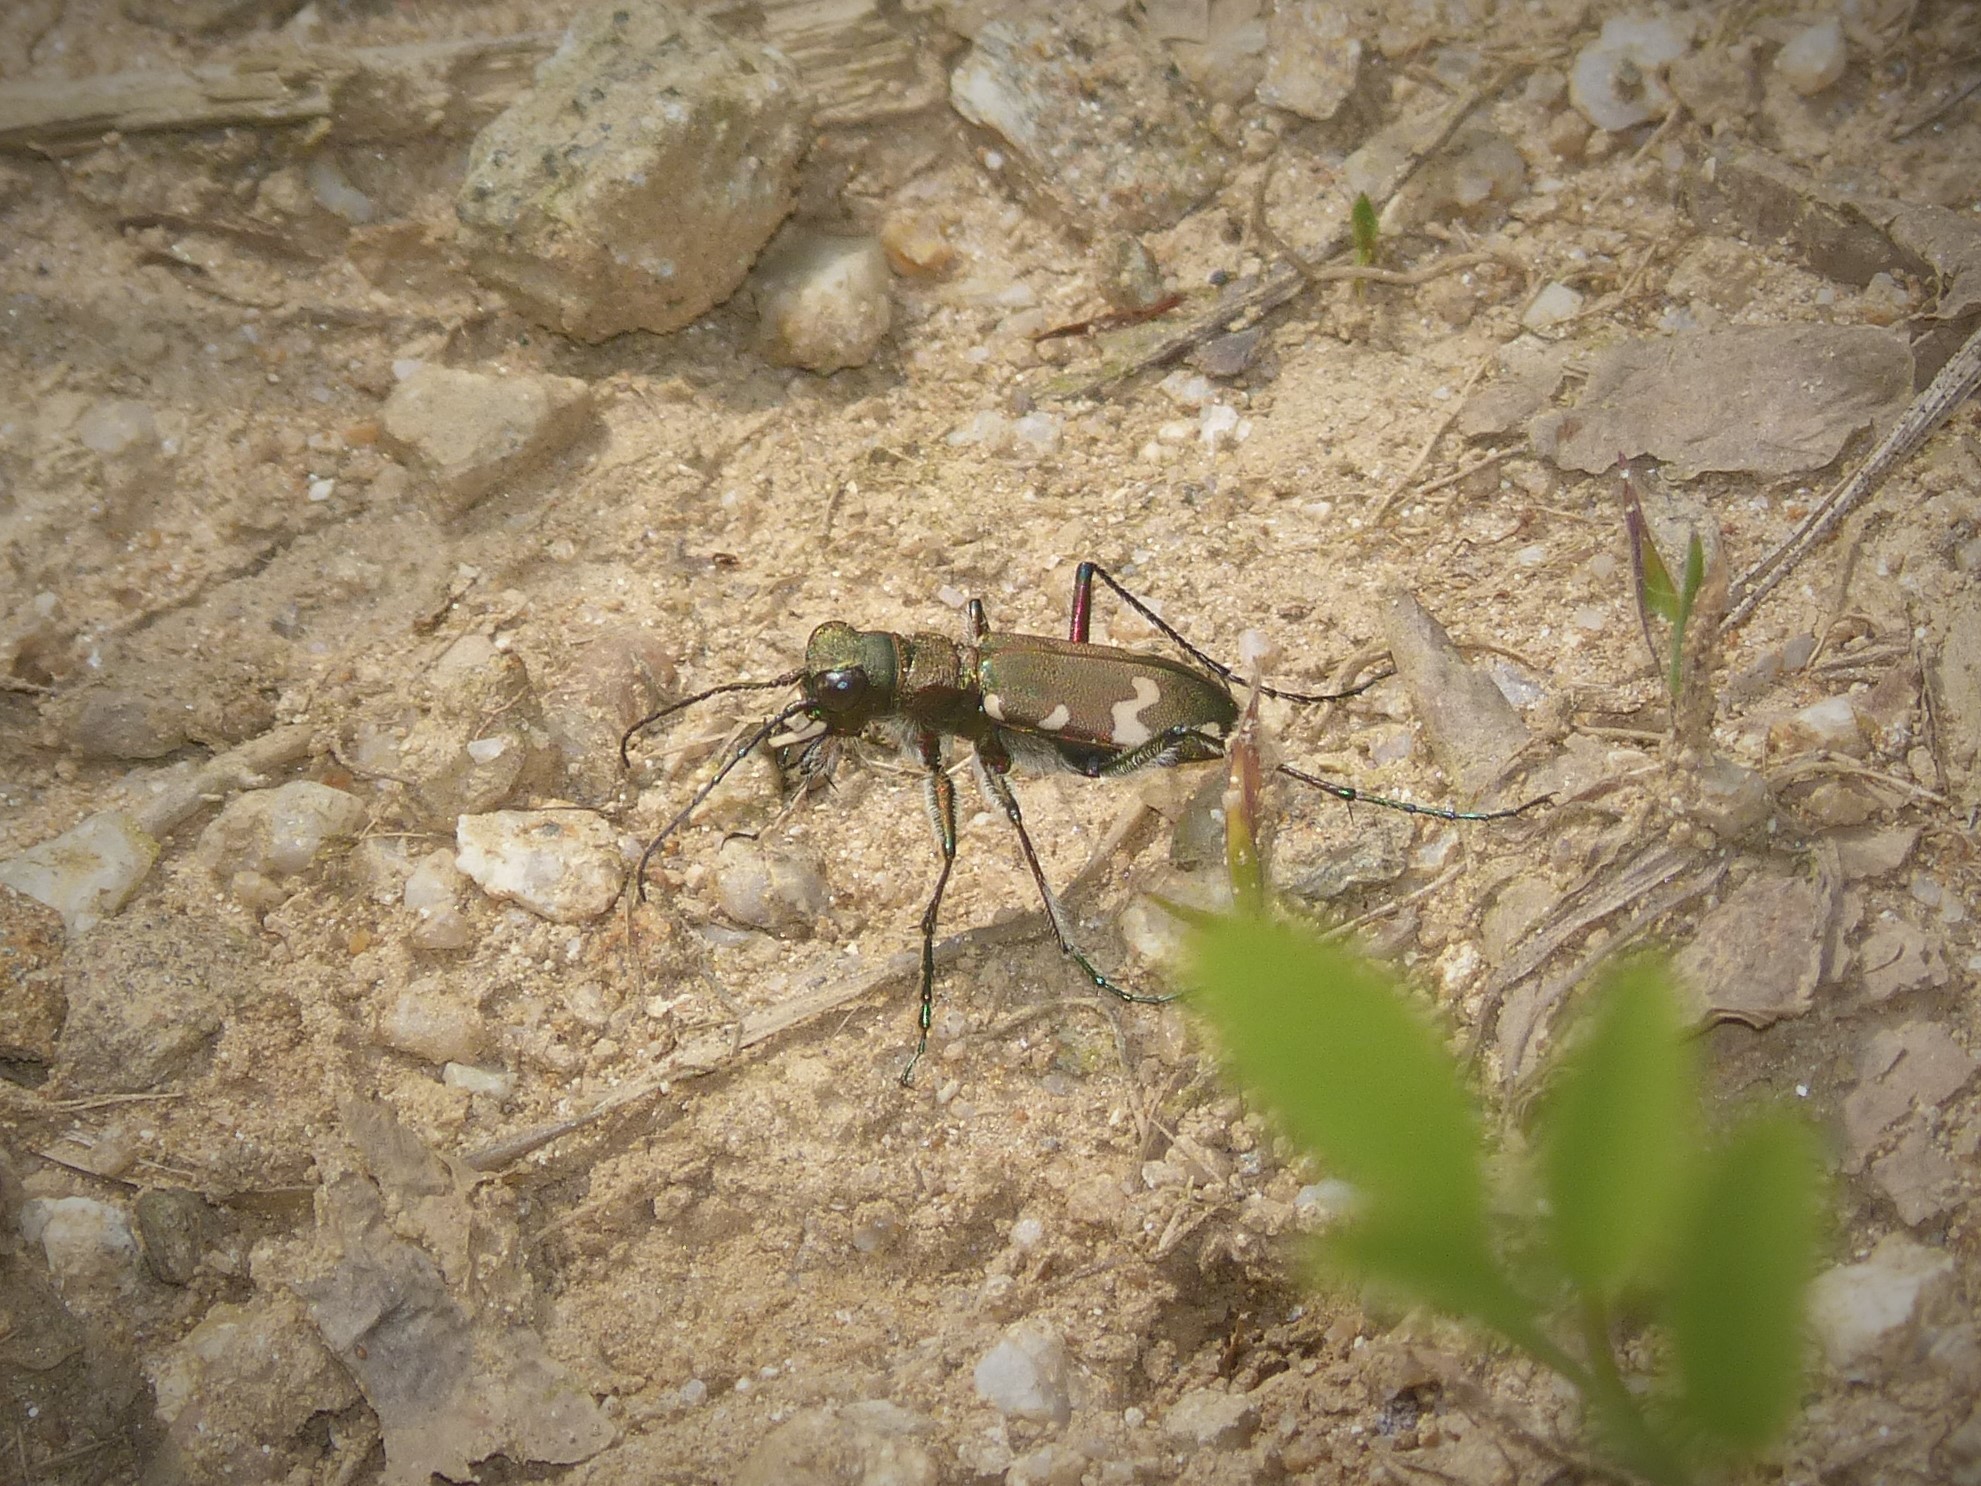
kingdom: Animalia
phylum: Arthropoda
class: Insecta
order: Coleoptera
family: Carabidae
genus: Cicindela
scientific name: Cicindela sylvicola
